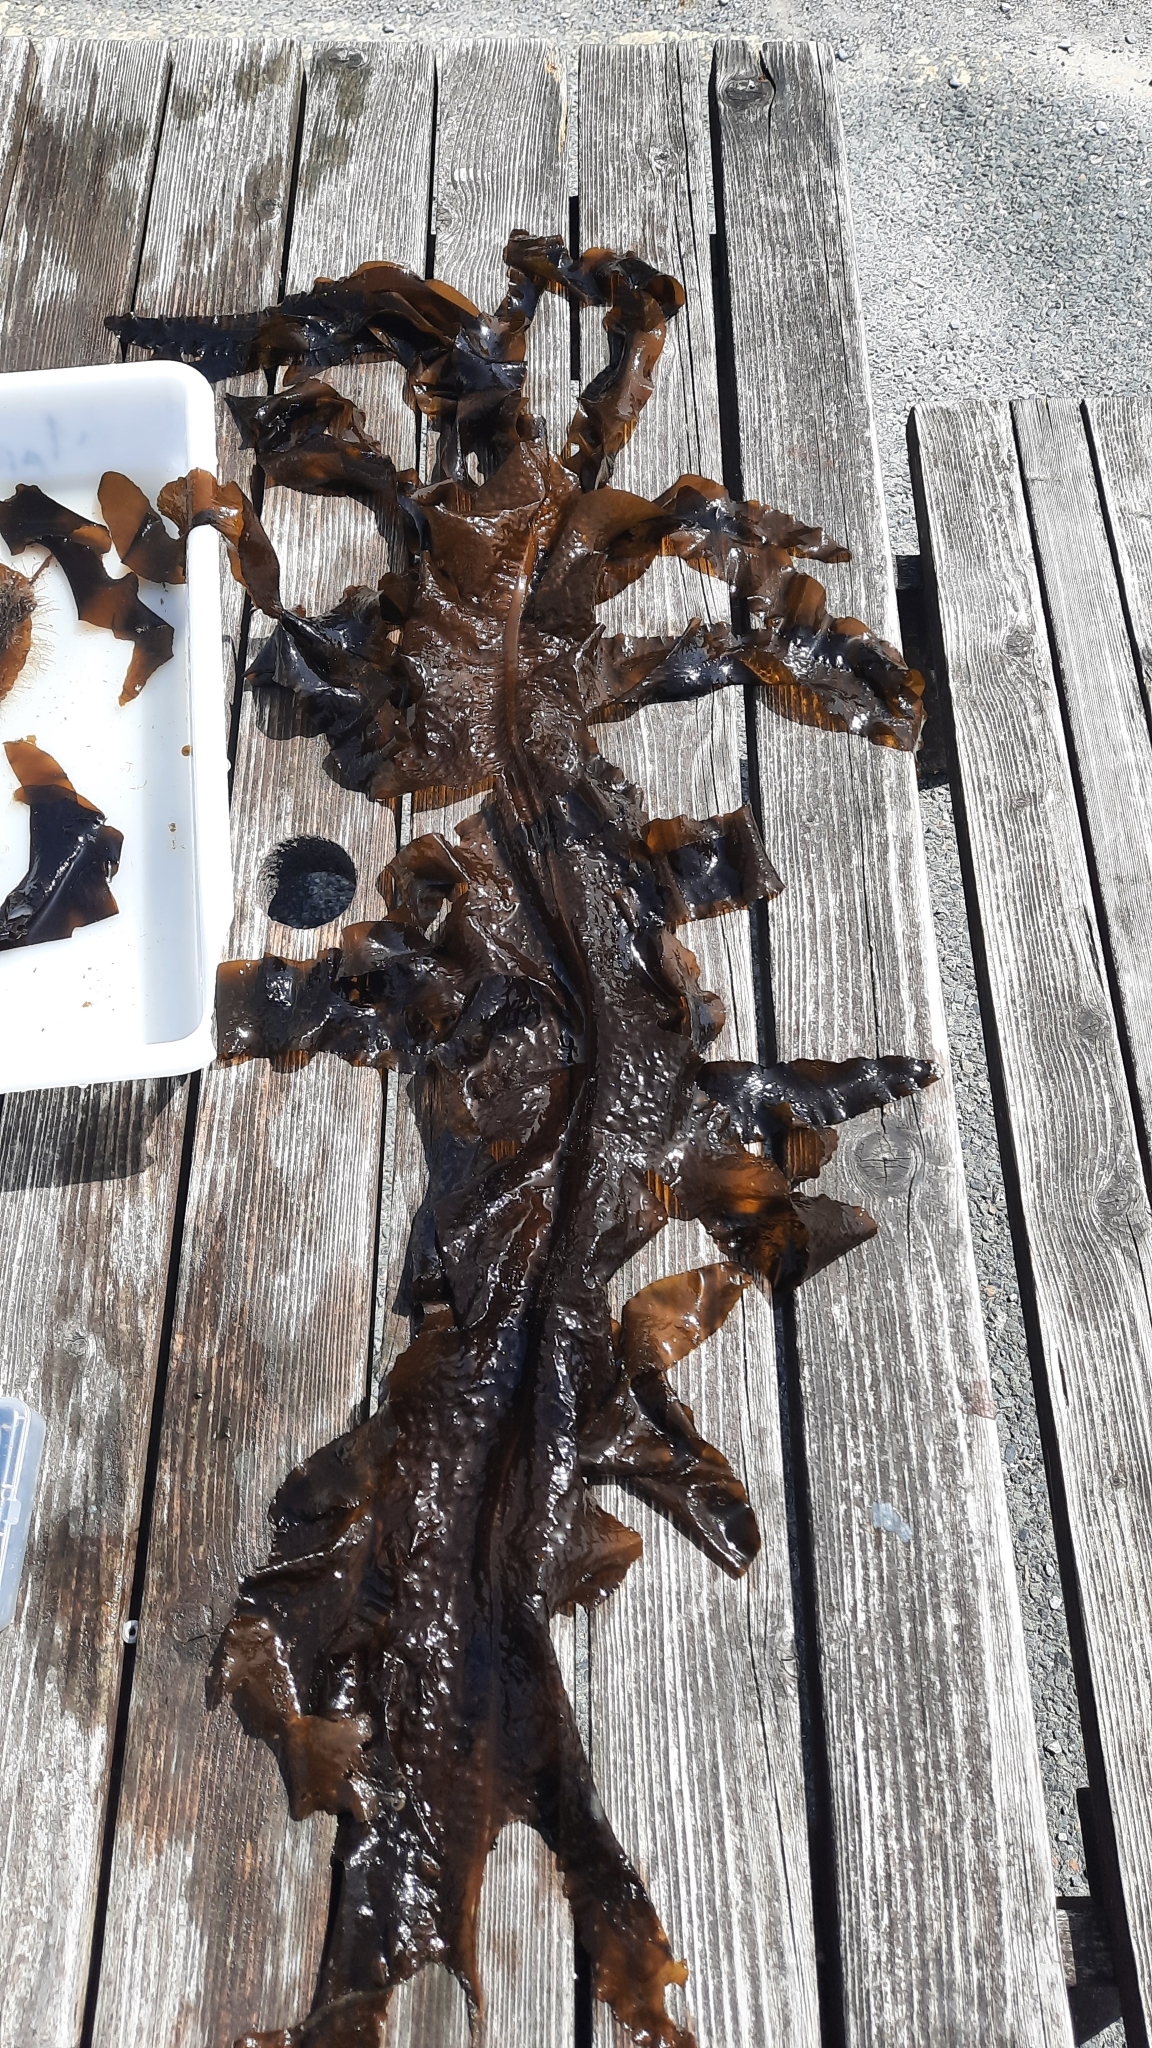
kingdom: Chromista
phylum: Ochrophyta
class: Phaeophyceae
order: Laminariales
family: Alariaceae
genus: Undaria
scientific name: Undaria pinnatifida
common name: Asian kelp
